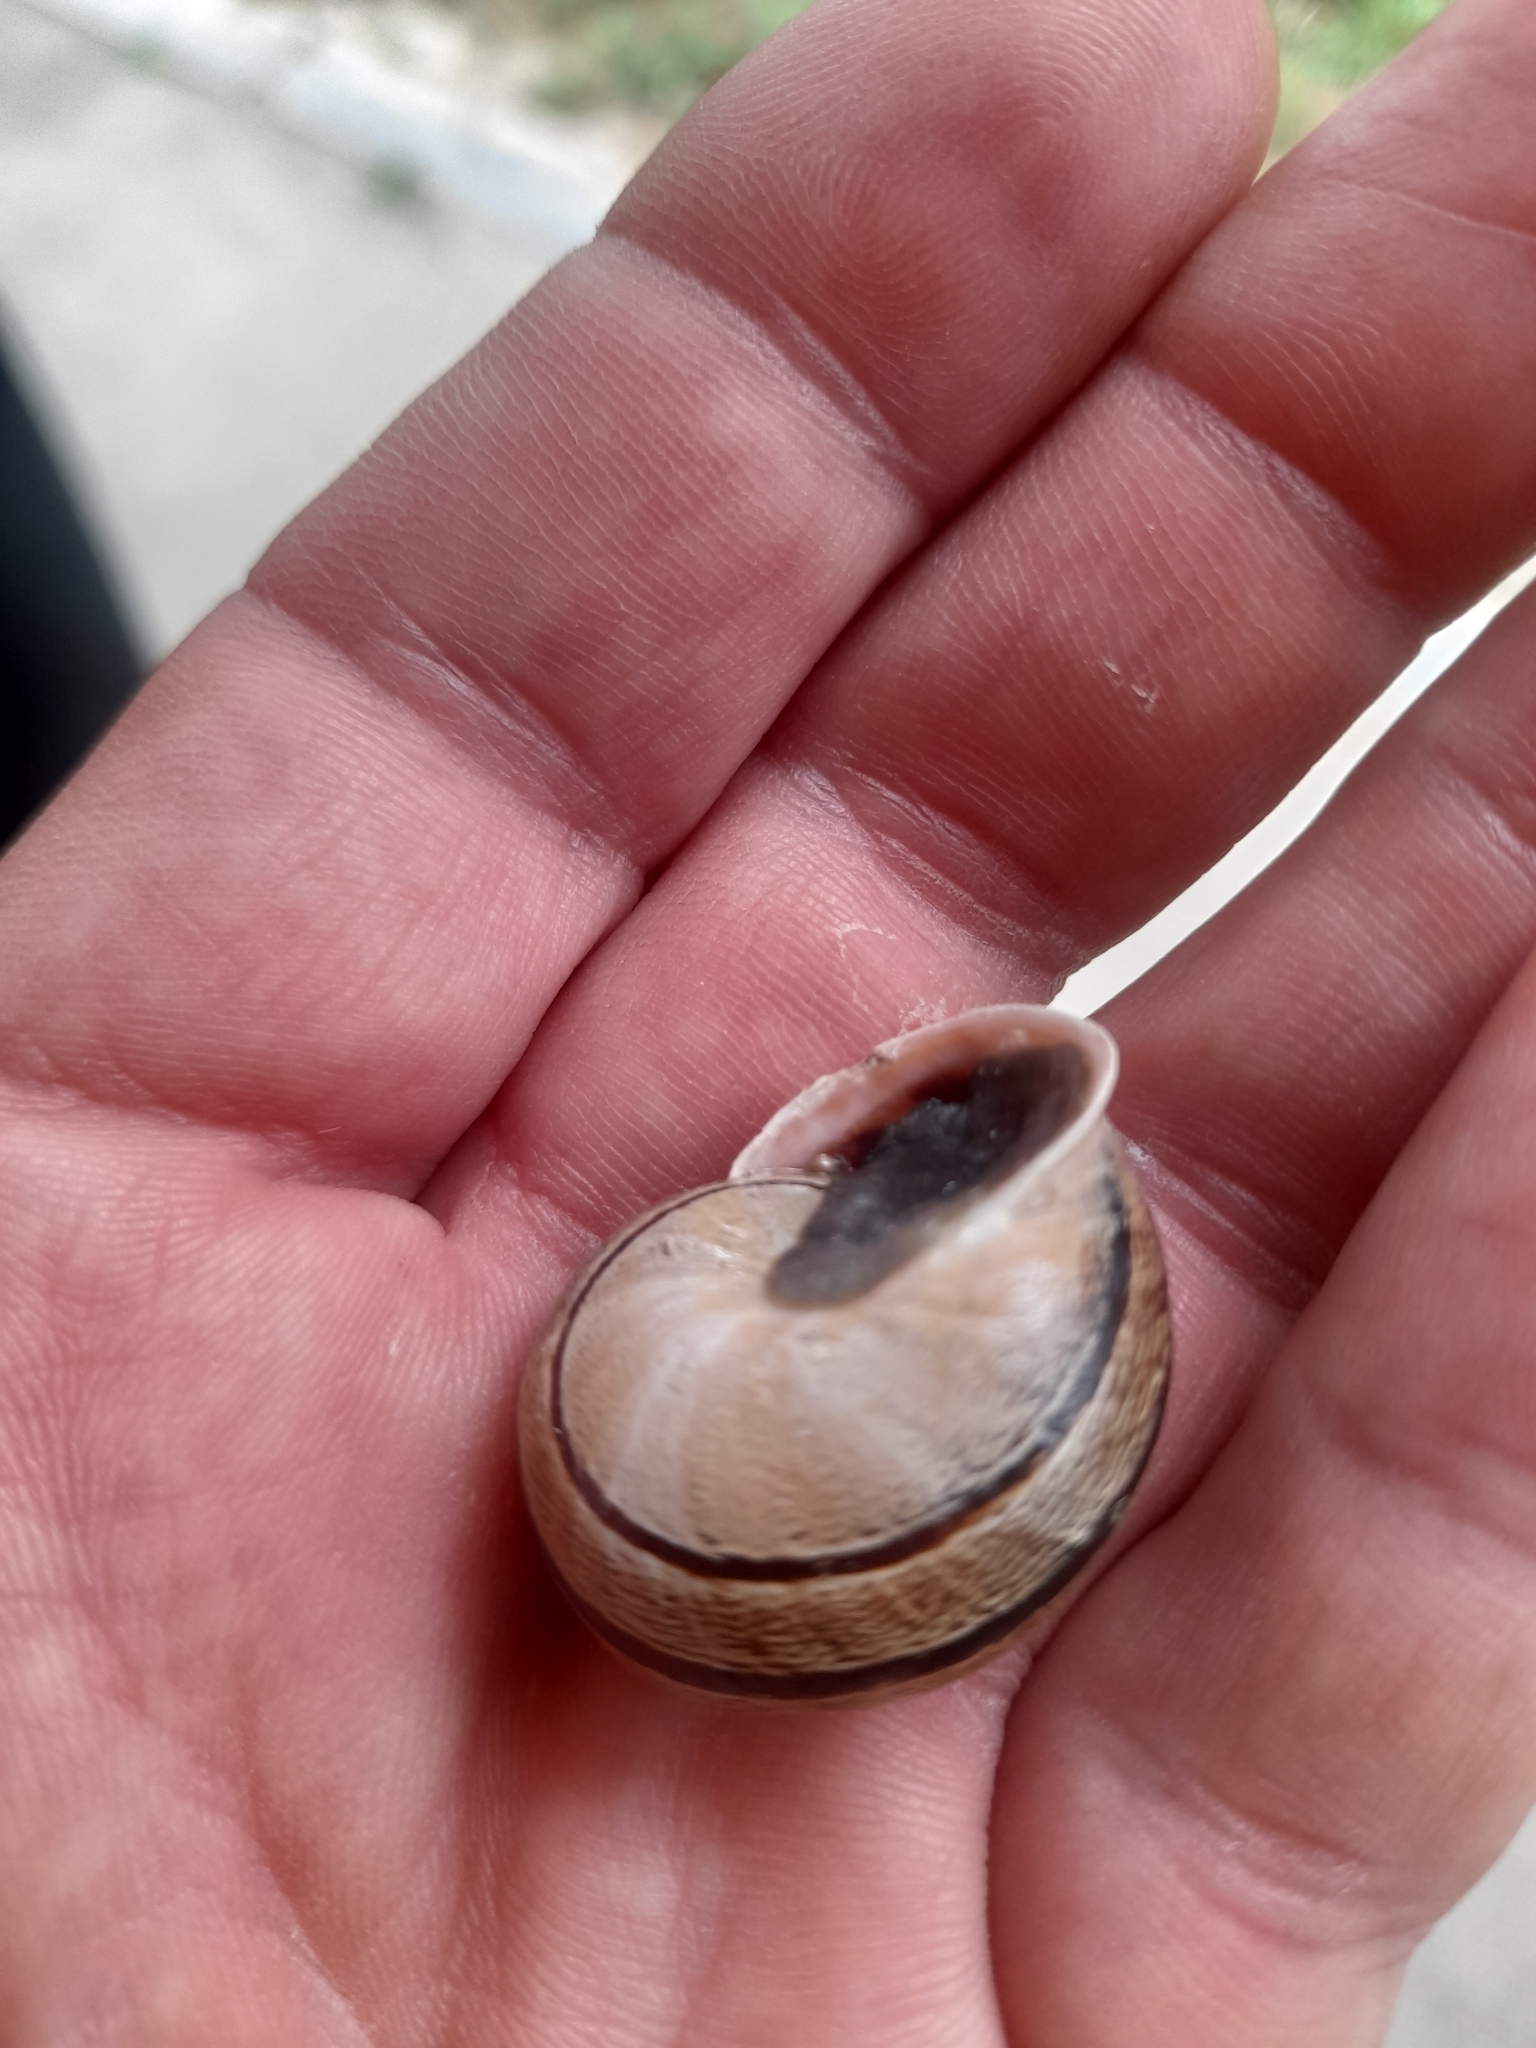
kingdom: Animalia
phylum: Mollusca
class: Gastropoda
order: Stylommatophora
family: Helicidae
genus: Eobania
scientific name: Eobania vermiculata
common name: Chocolateband snail
